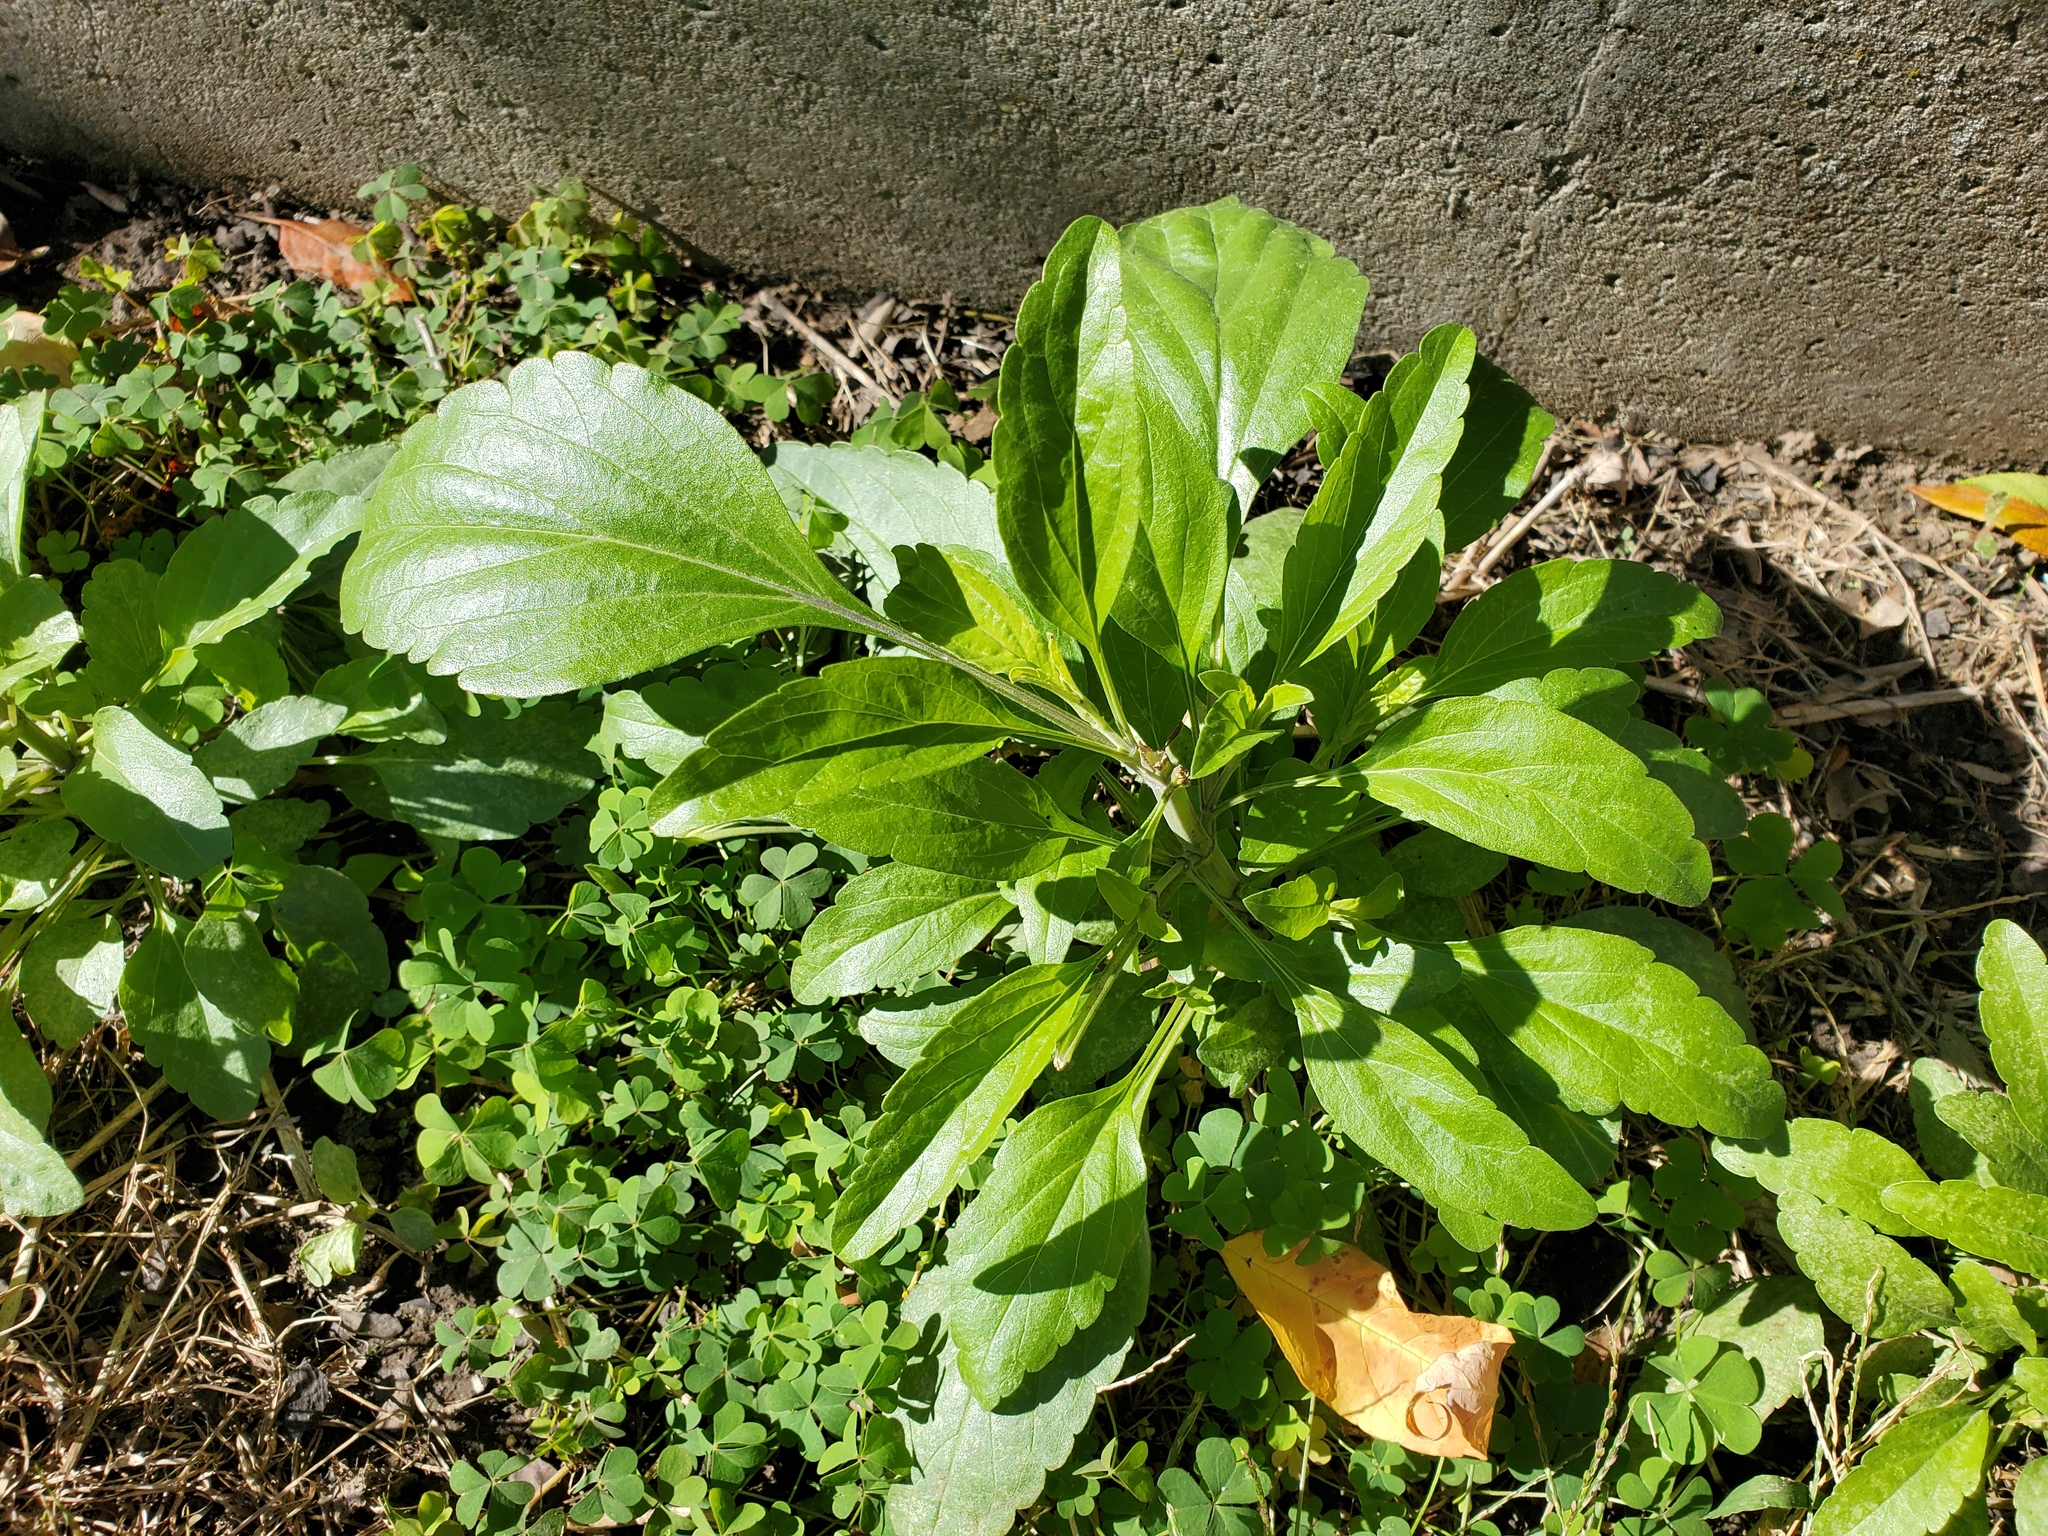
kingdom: Plantae
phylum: Tracheophyta
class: Magnoliopsida
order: Lamiales
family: Lamiaceae
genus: Salvia
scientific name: Salvia farinacea
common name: Mealy sage
